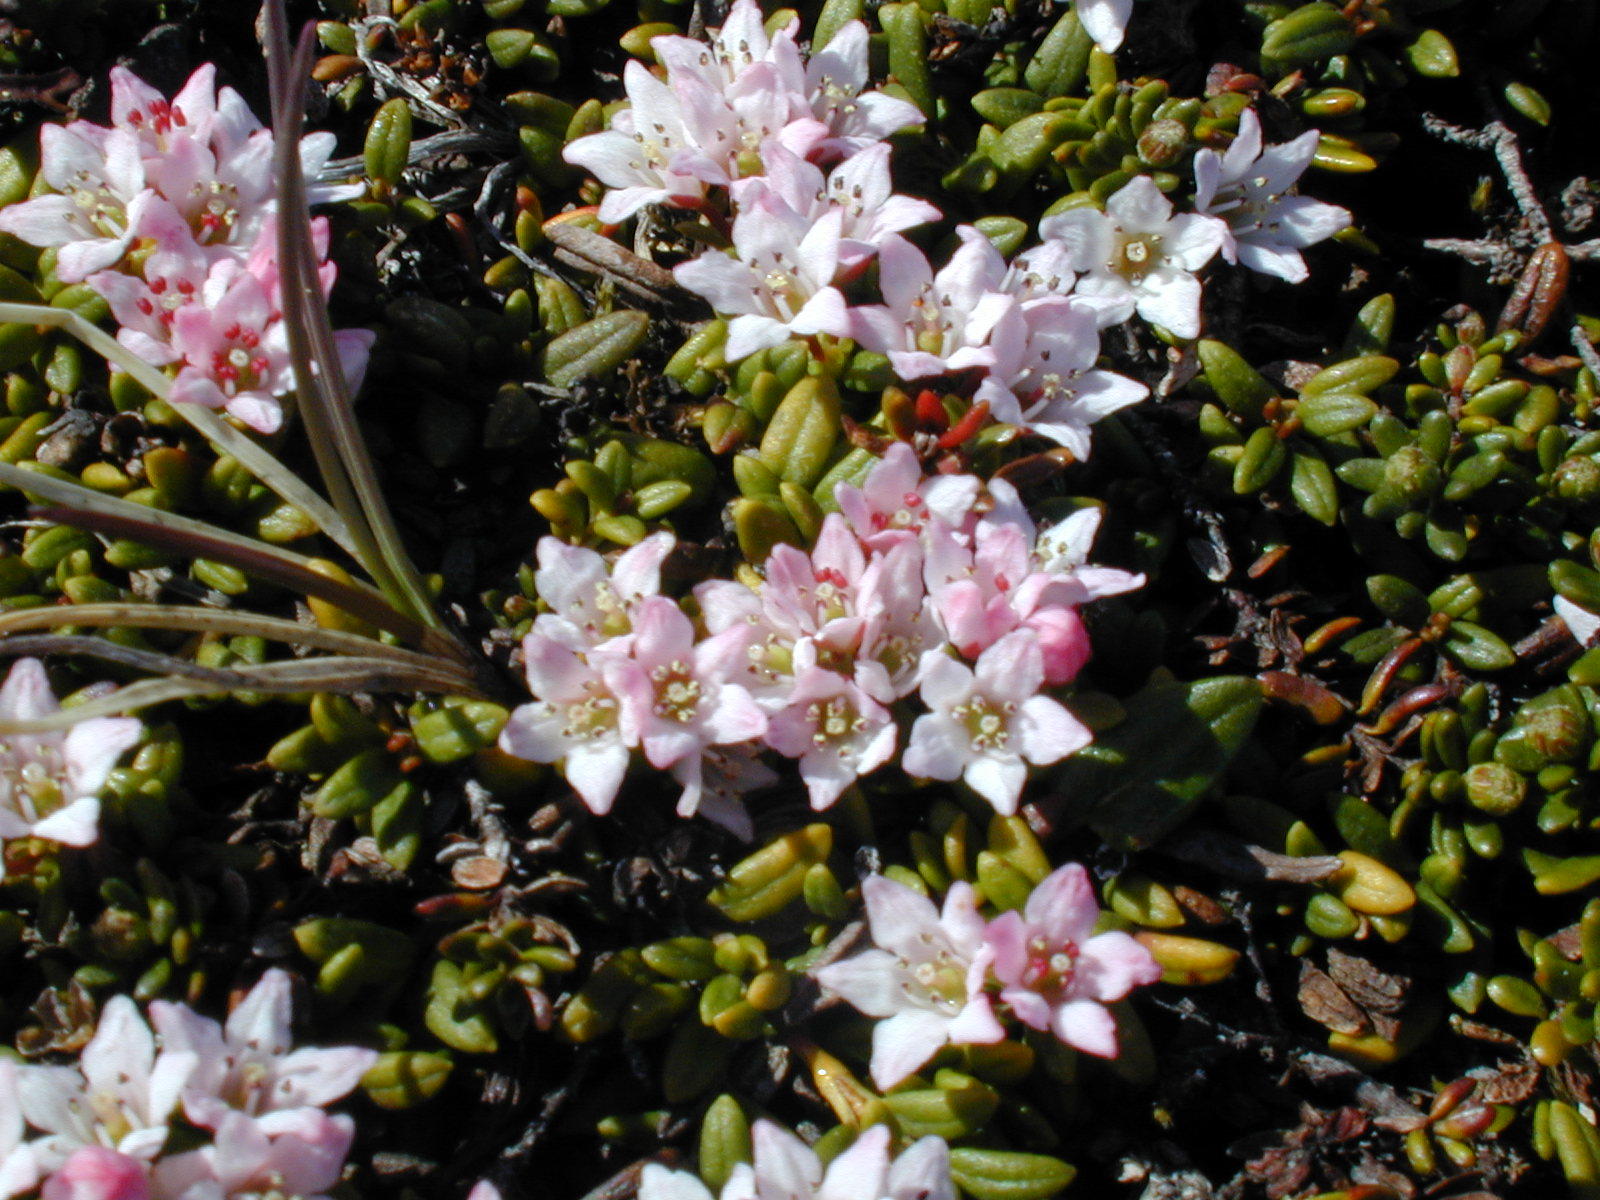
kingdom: Plantae
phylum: Tracheophyta
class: Magnoliopsida
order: Ericales
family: Ericaceae
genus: Kalmia
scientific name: Kalmia procumbens
